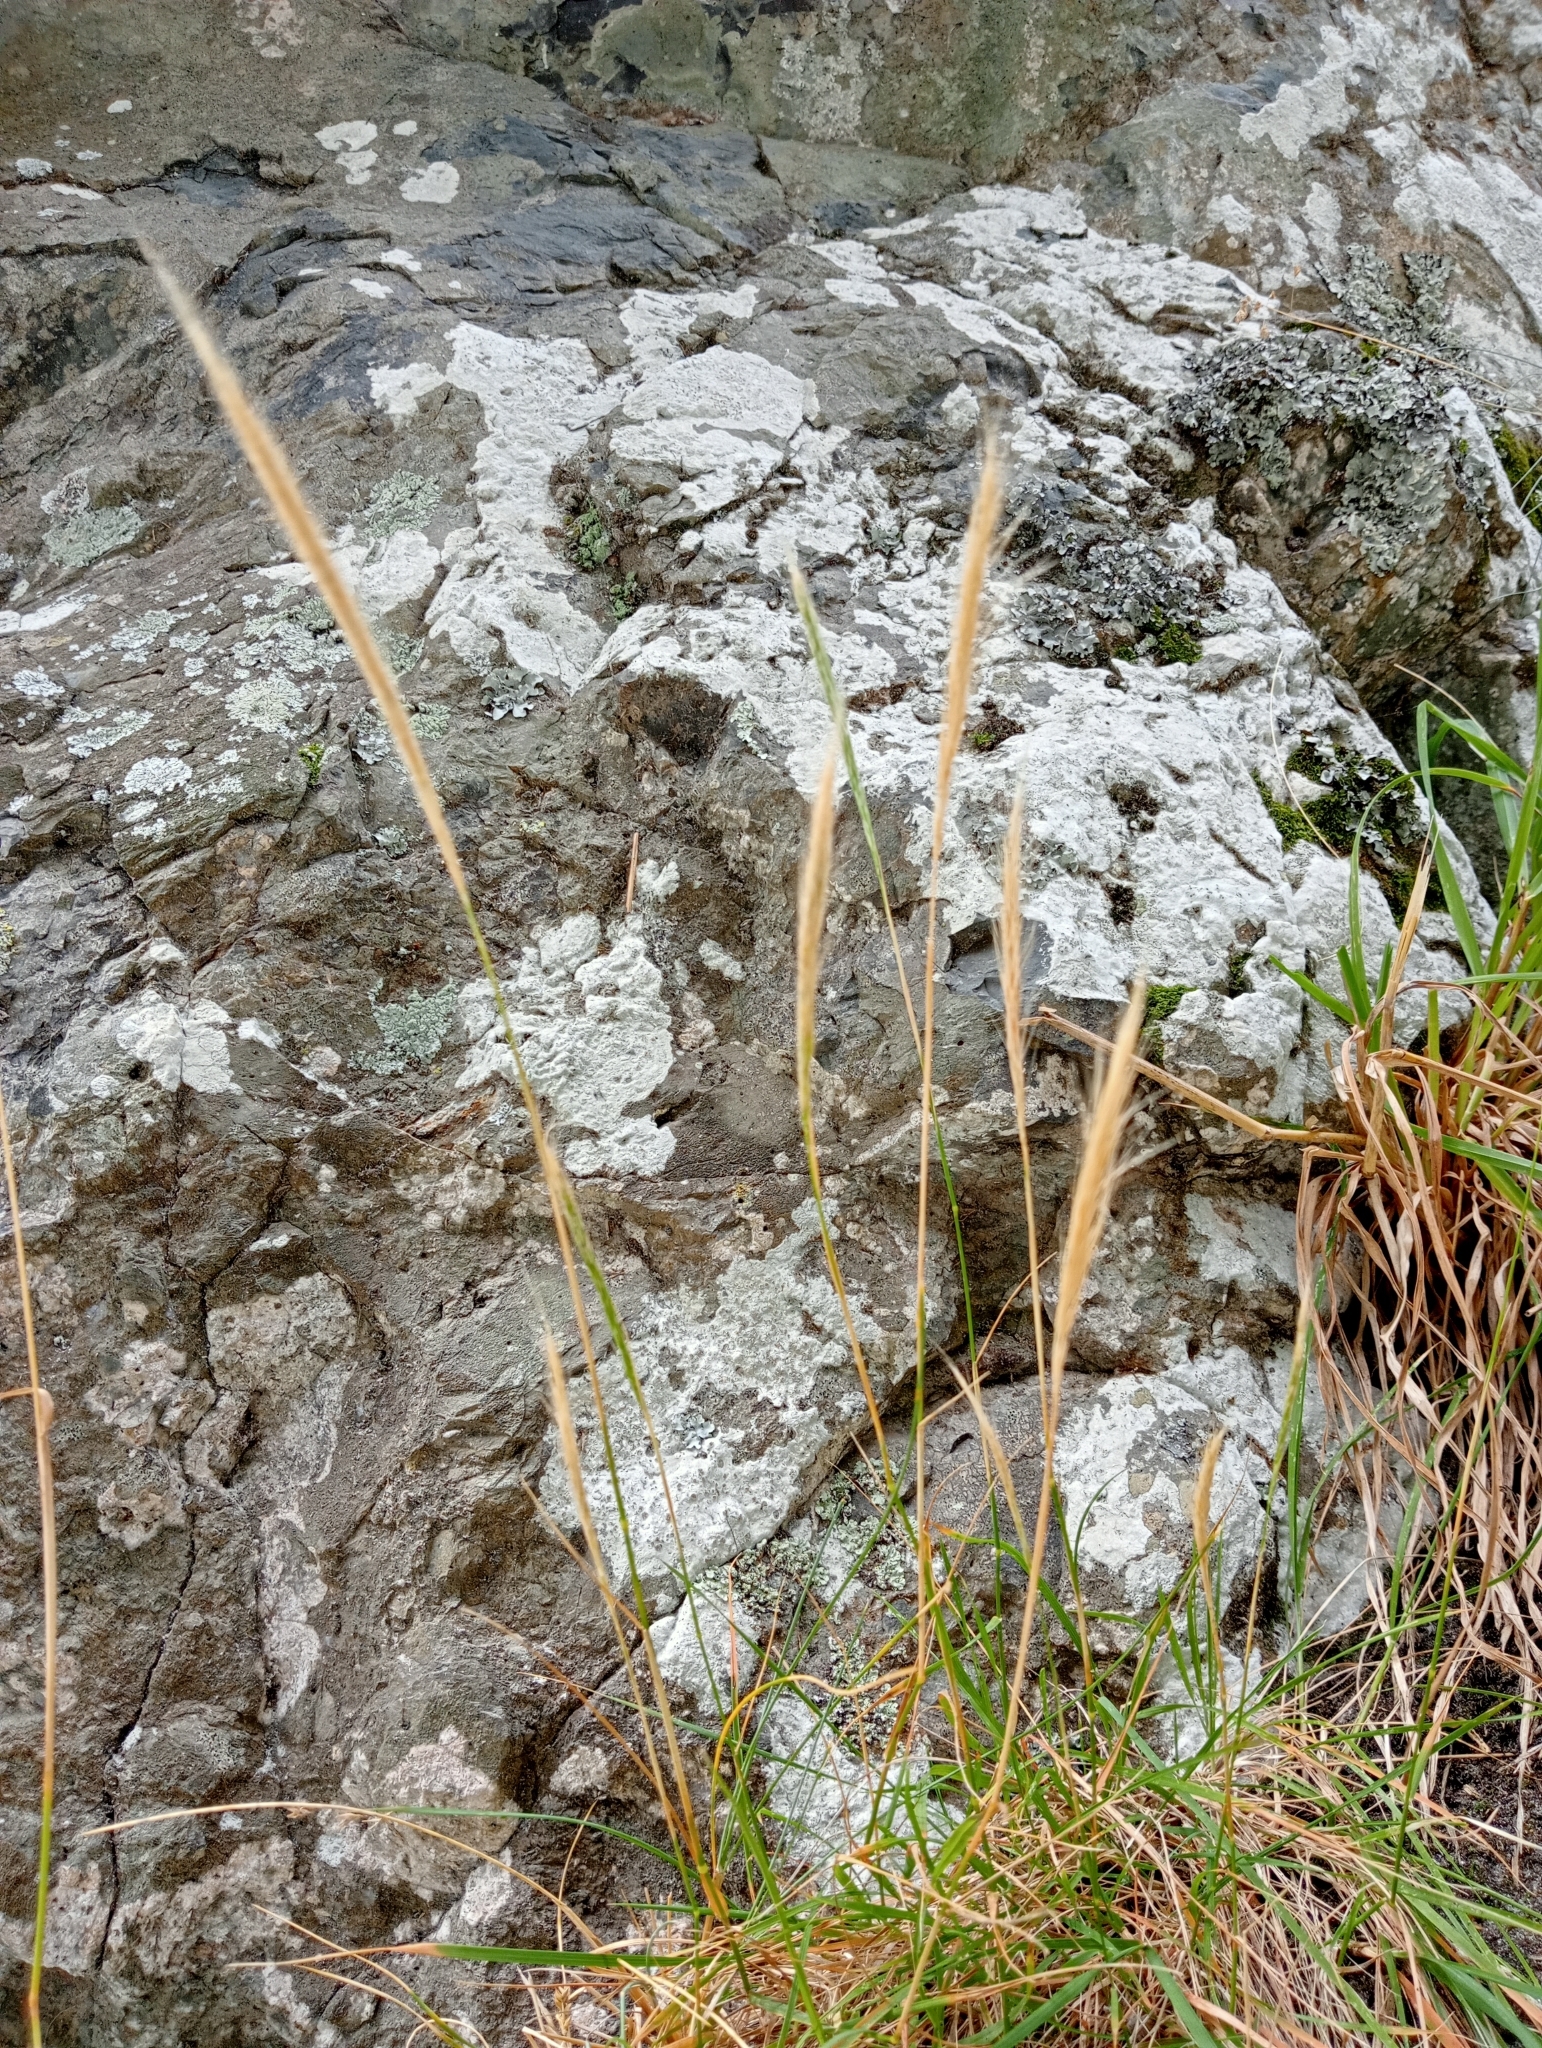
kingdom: Plantae
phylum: Tracheophyta
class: Liliopsida
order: Poales
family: Poaceae
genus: Dichelachne
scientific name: Dichelachne crinita
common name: Clovenfoot plumegrass
